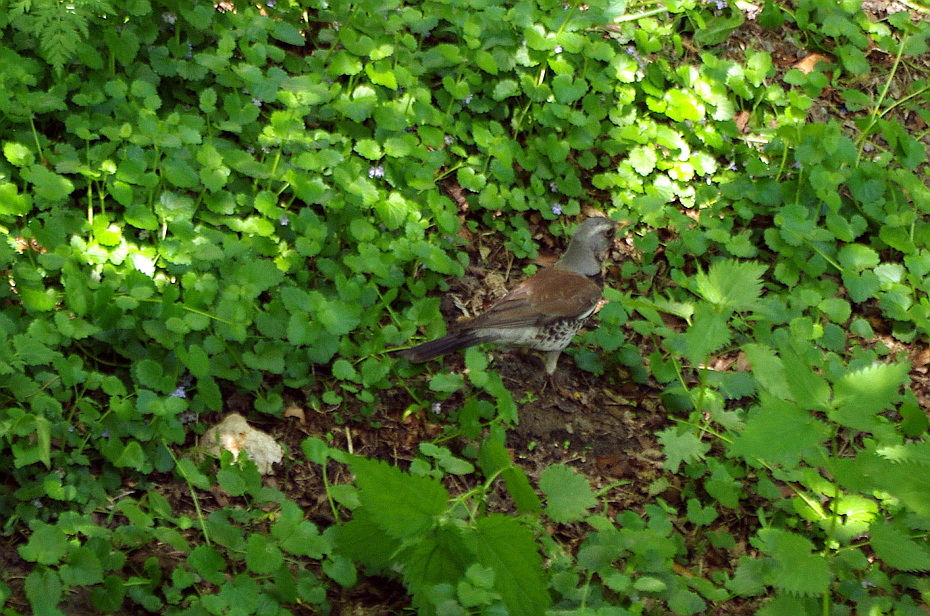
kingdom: Animalia
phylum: Chordata
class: Aves
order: Passeriformes
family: Turdidae
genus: Turdus
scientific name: Turdus pilaris
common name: Fieldfare
